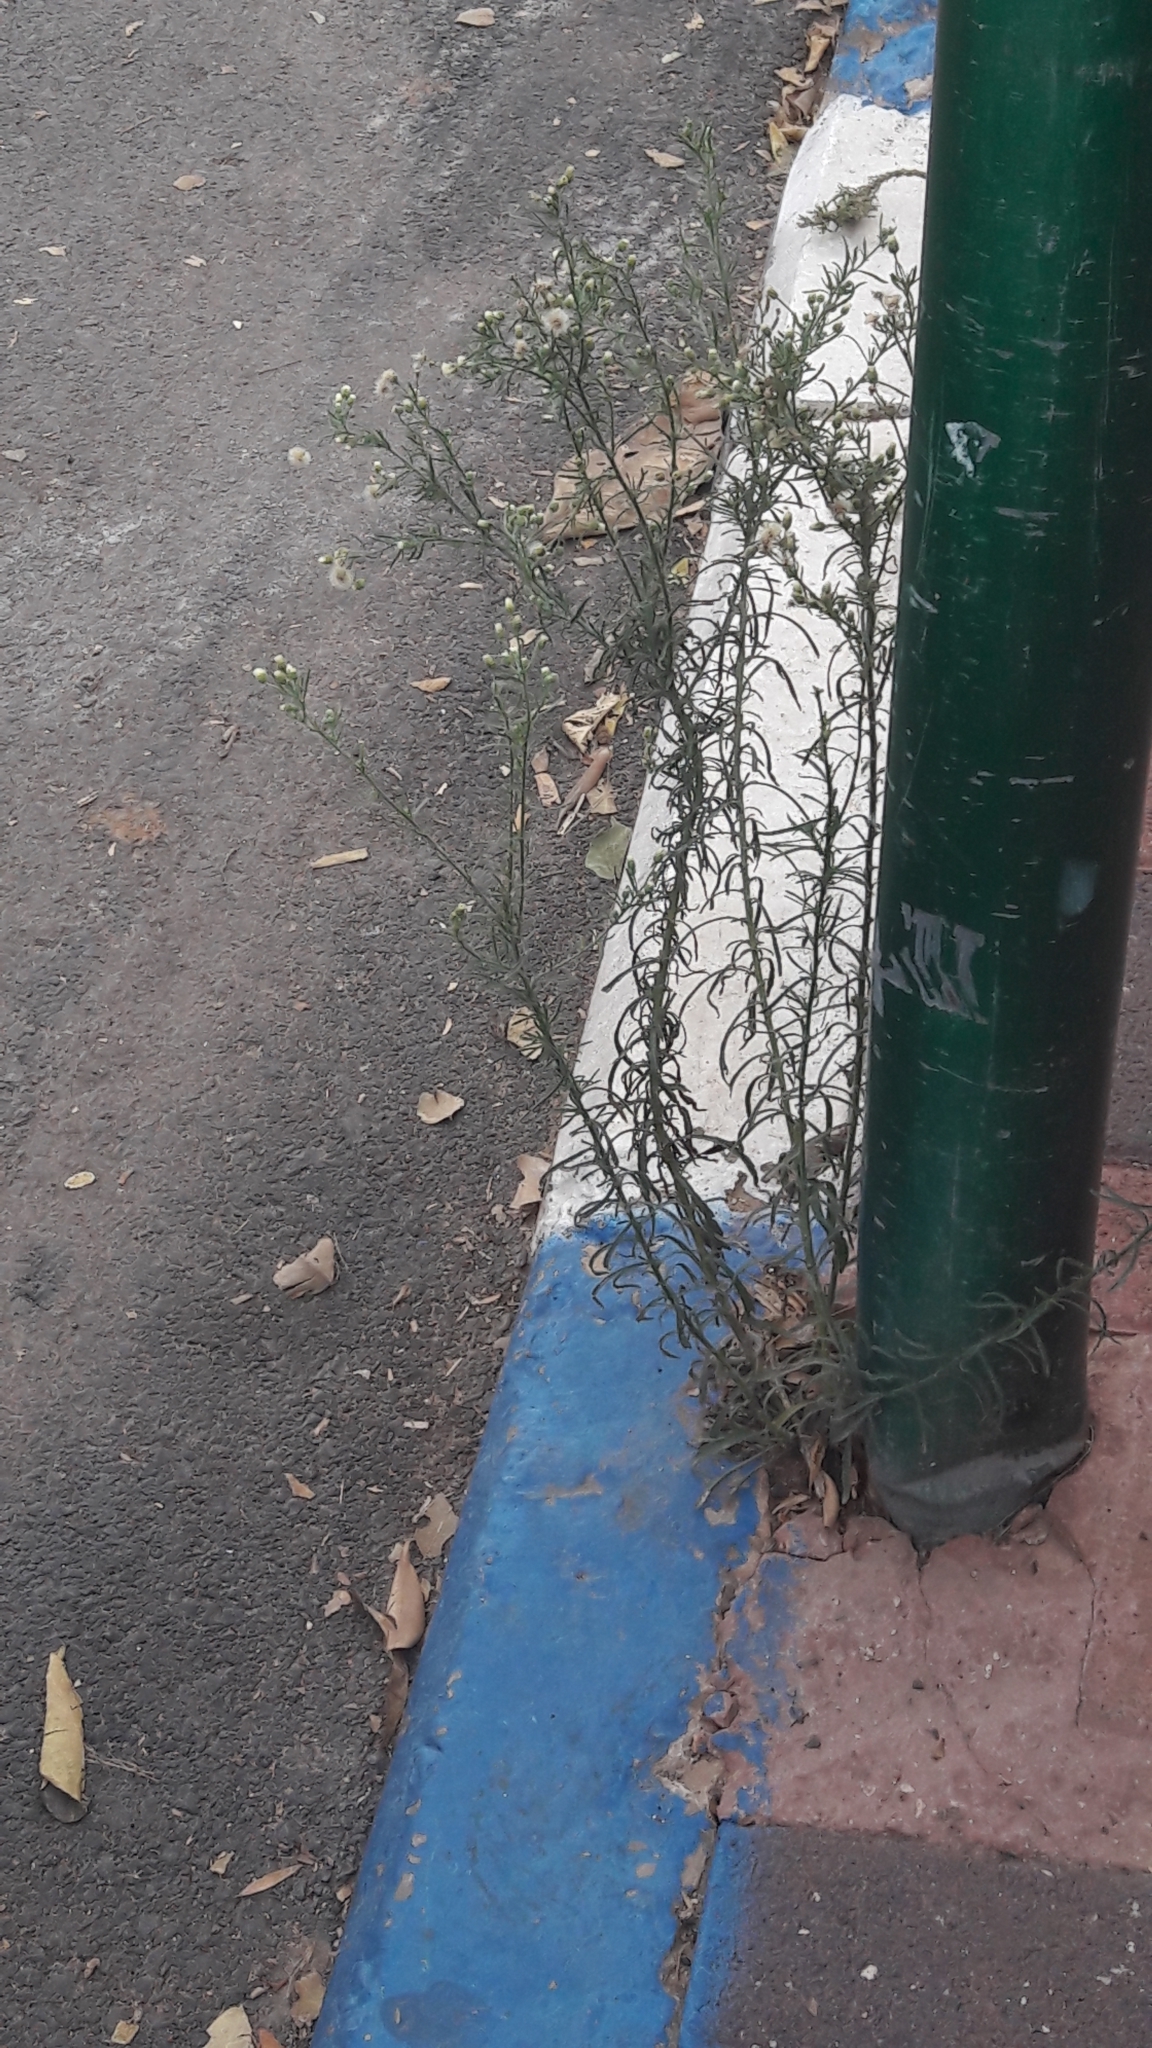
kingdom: Plantae
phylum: Tracheophyta
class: Magnoliopsida
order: Asterales
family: Asteraceae
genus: Erigeron
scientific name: Erigeron canadensis
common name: Canadian fleabane
